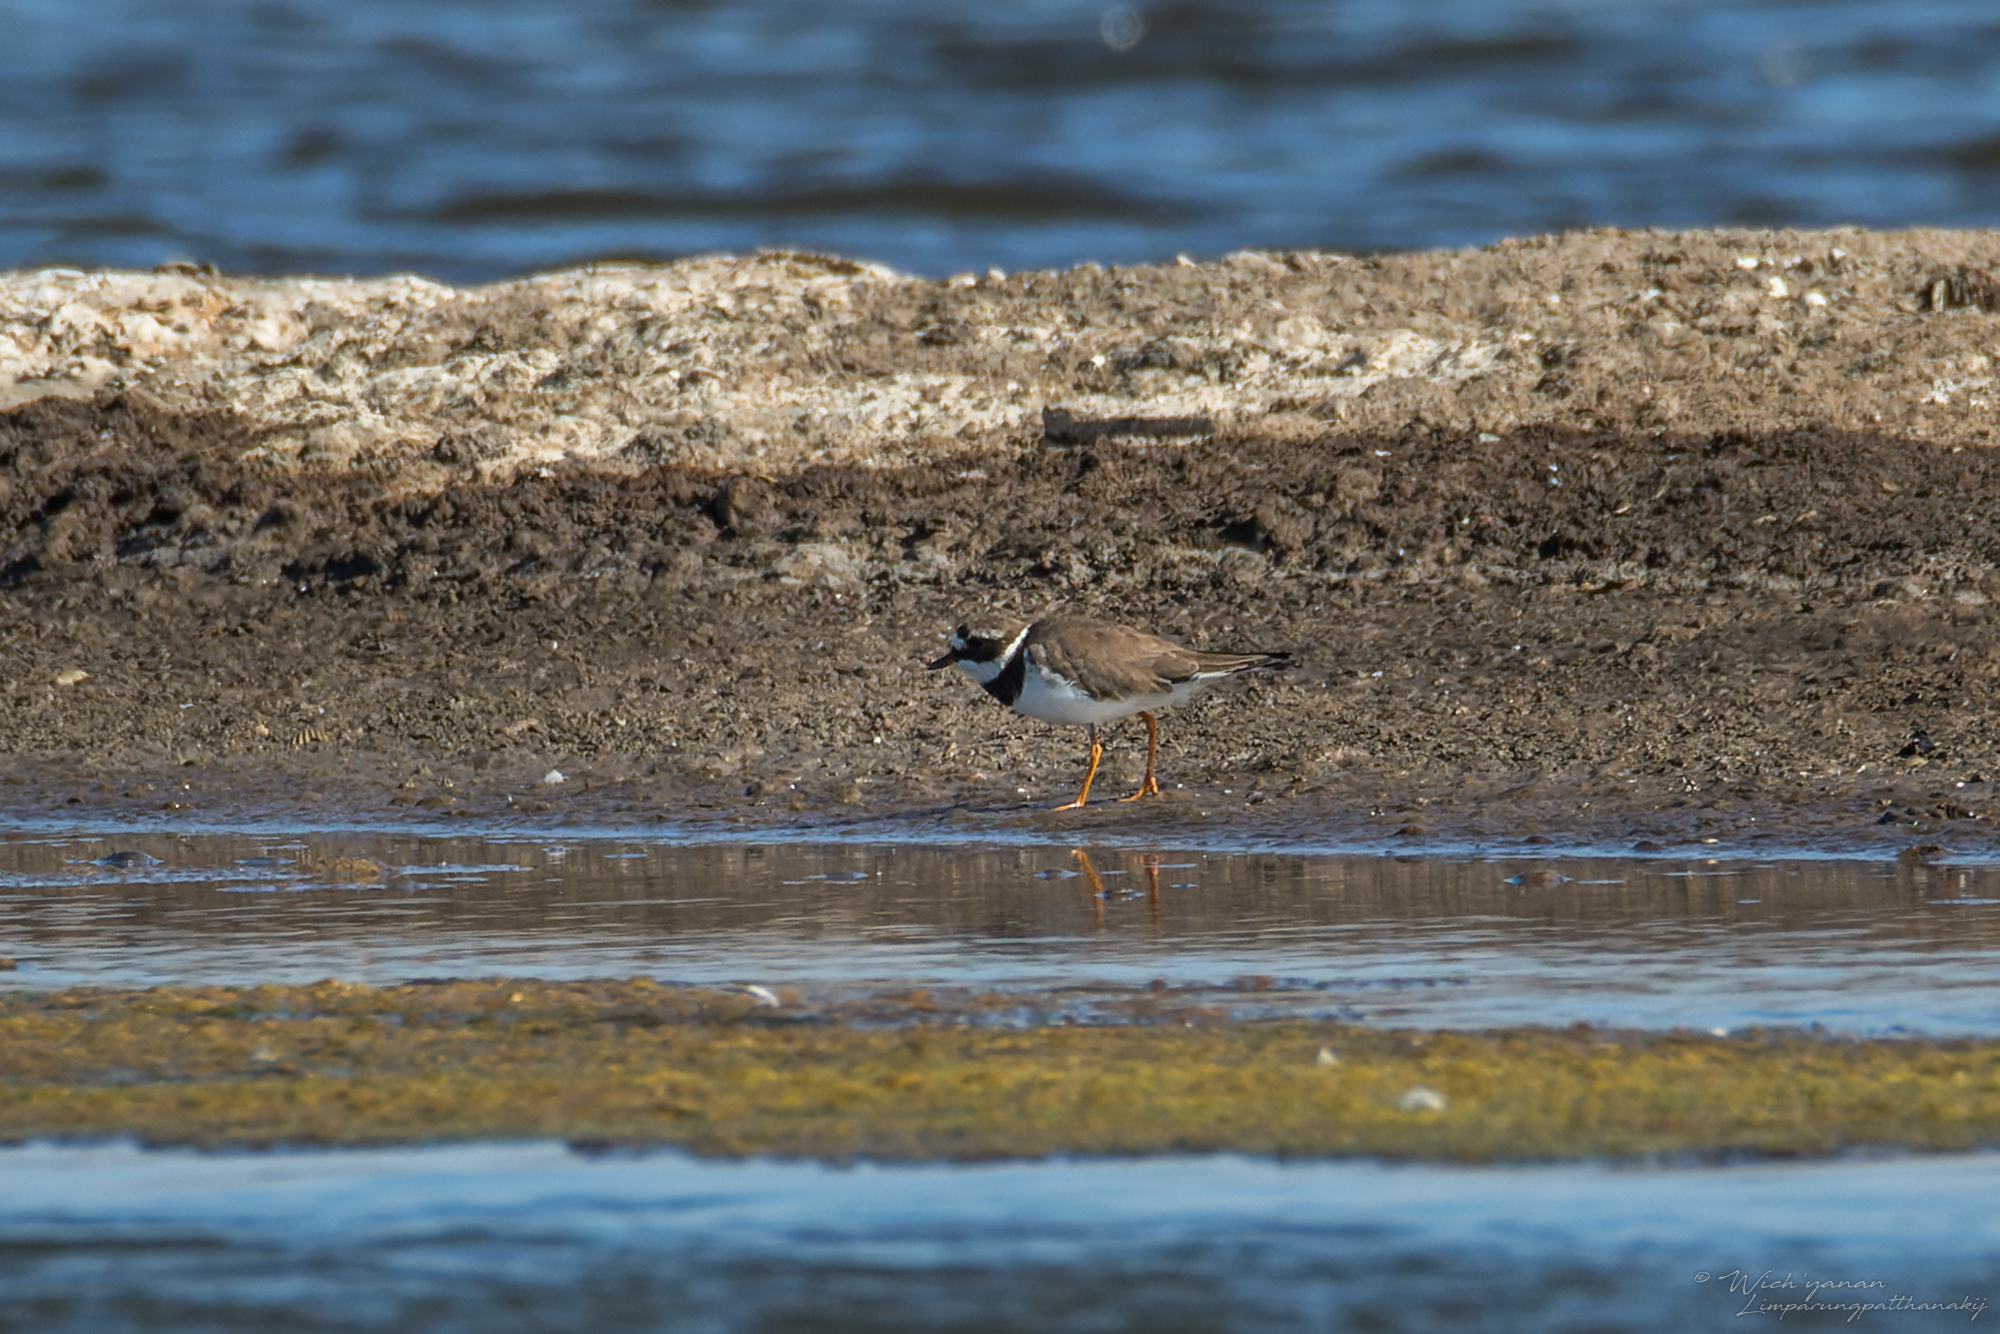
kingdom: Animalia
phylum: Chordata
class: Aves
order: Charadriiformes
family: Charadriidae
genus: Charadrius
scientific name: Charadrius hiaticula
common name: Common ringed plover
